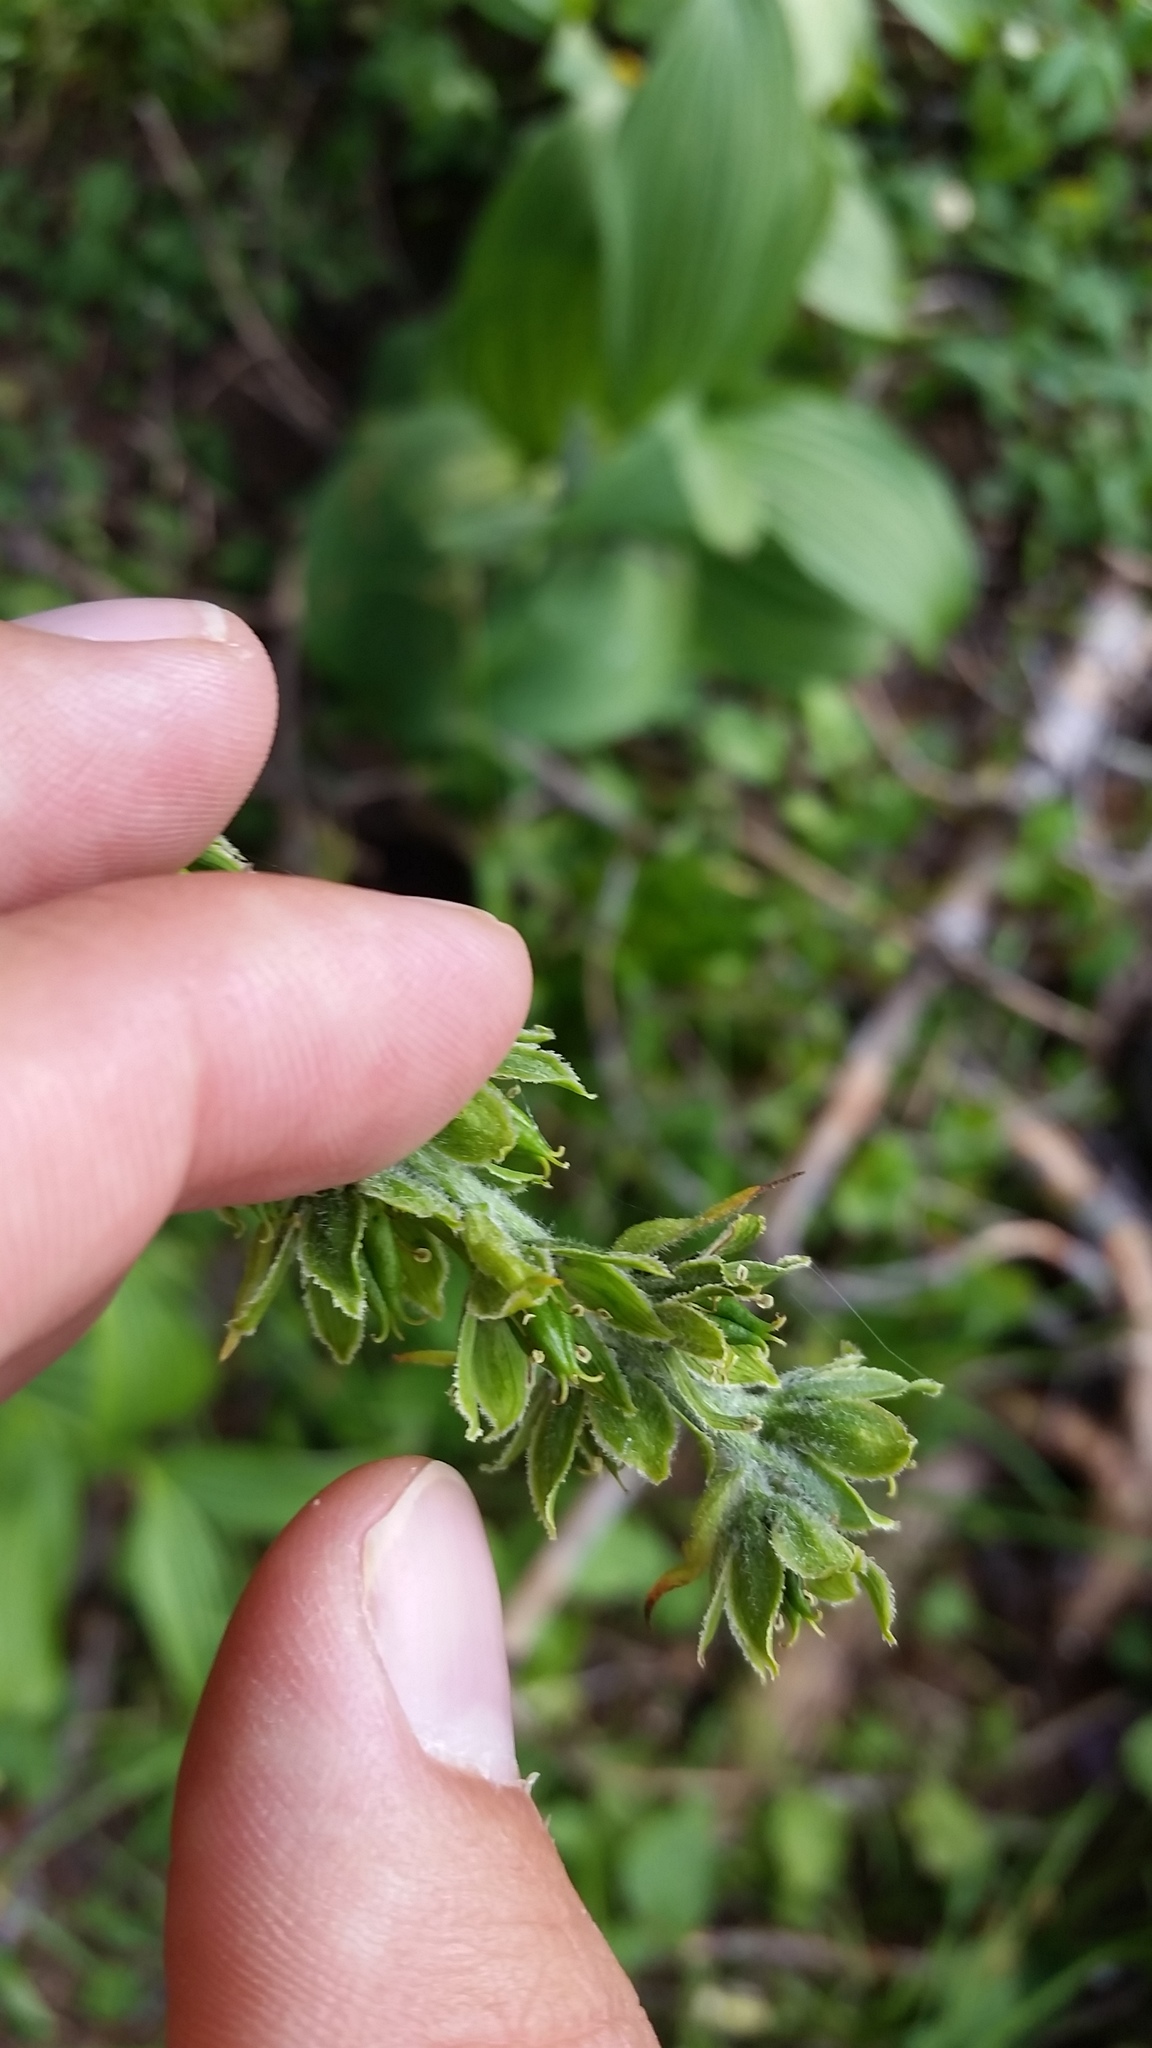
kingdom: Plantae
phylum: Tracheophyta
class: Liliopsida
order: Liliales
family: Melanthiaceae
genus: Veratrum
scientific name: Veratrum viride
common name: American false hellebore
